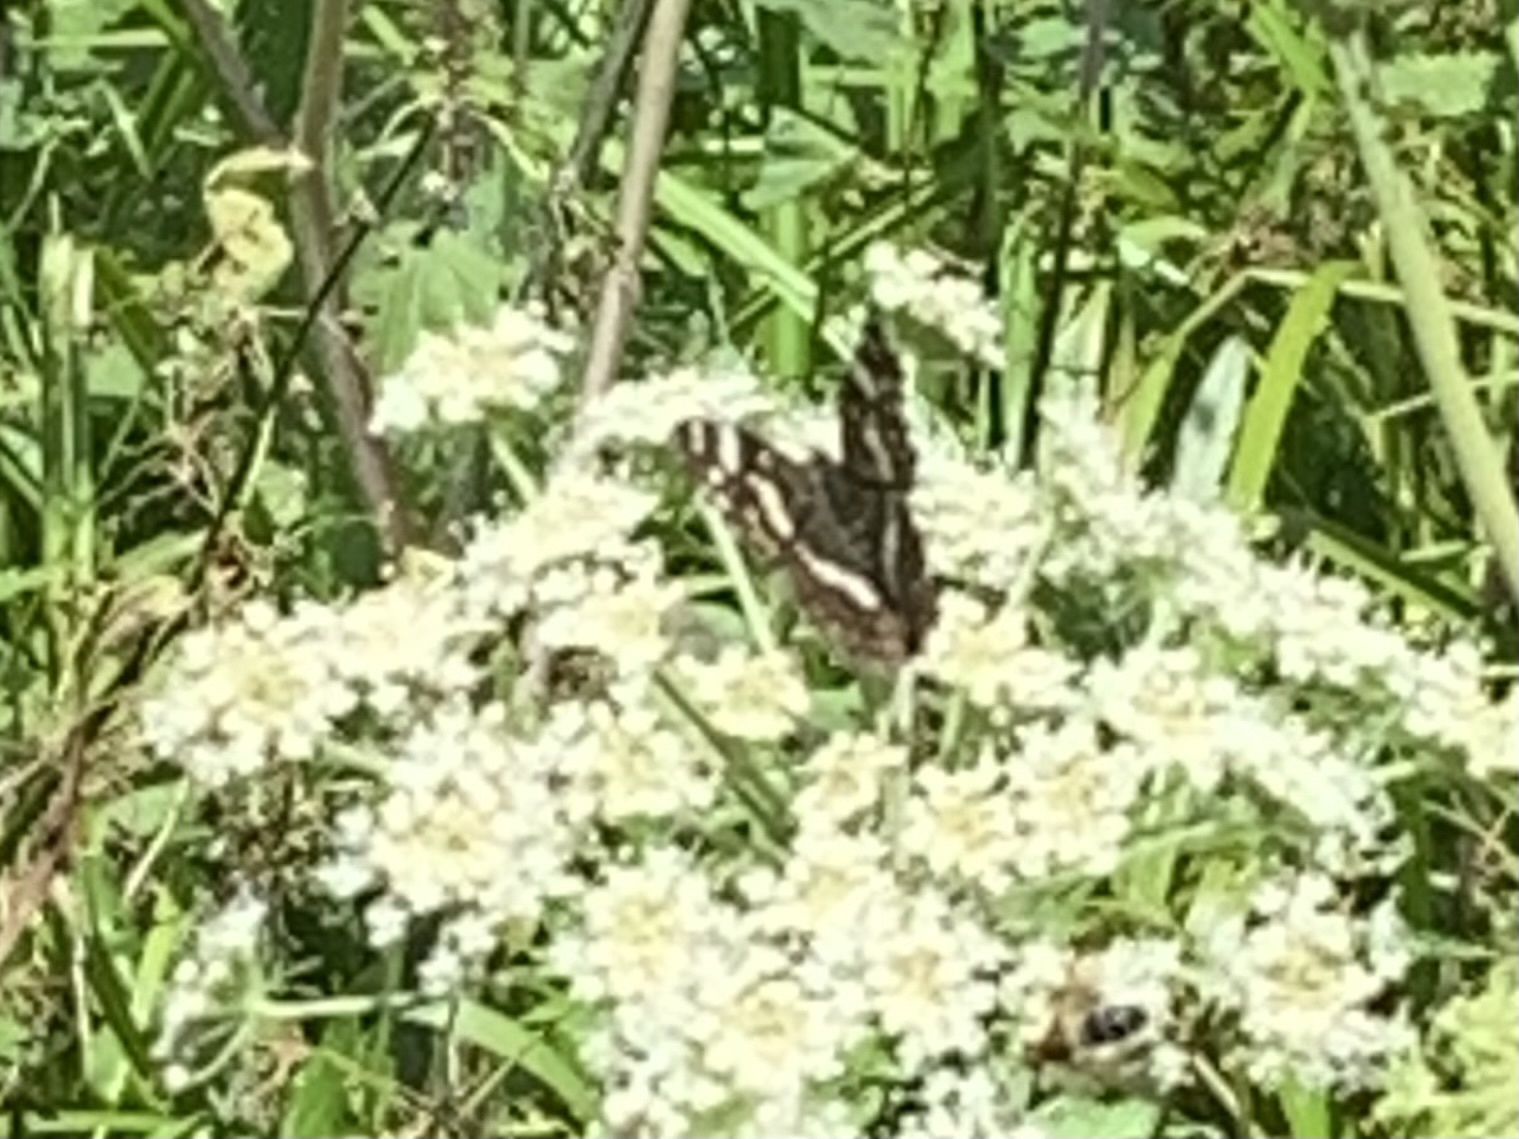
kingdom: Animalia
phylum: Arthropoda
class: Insecta
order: Lepidoptera
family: Nymphalidae
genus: Araschnia
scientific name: Araschnia levana
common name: Map butterfly
